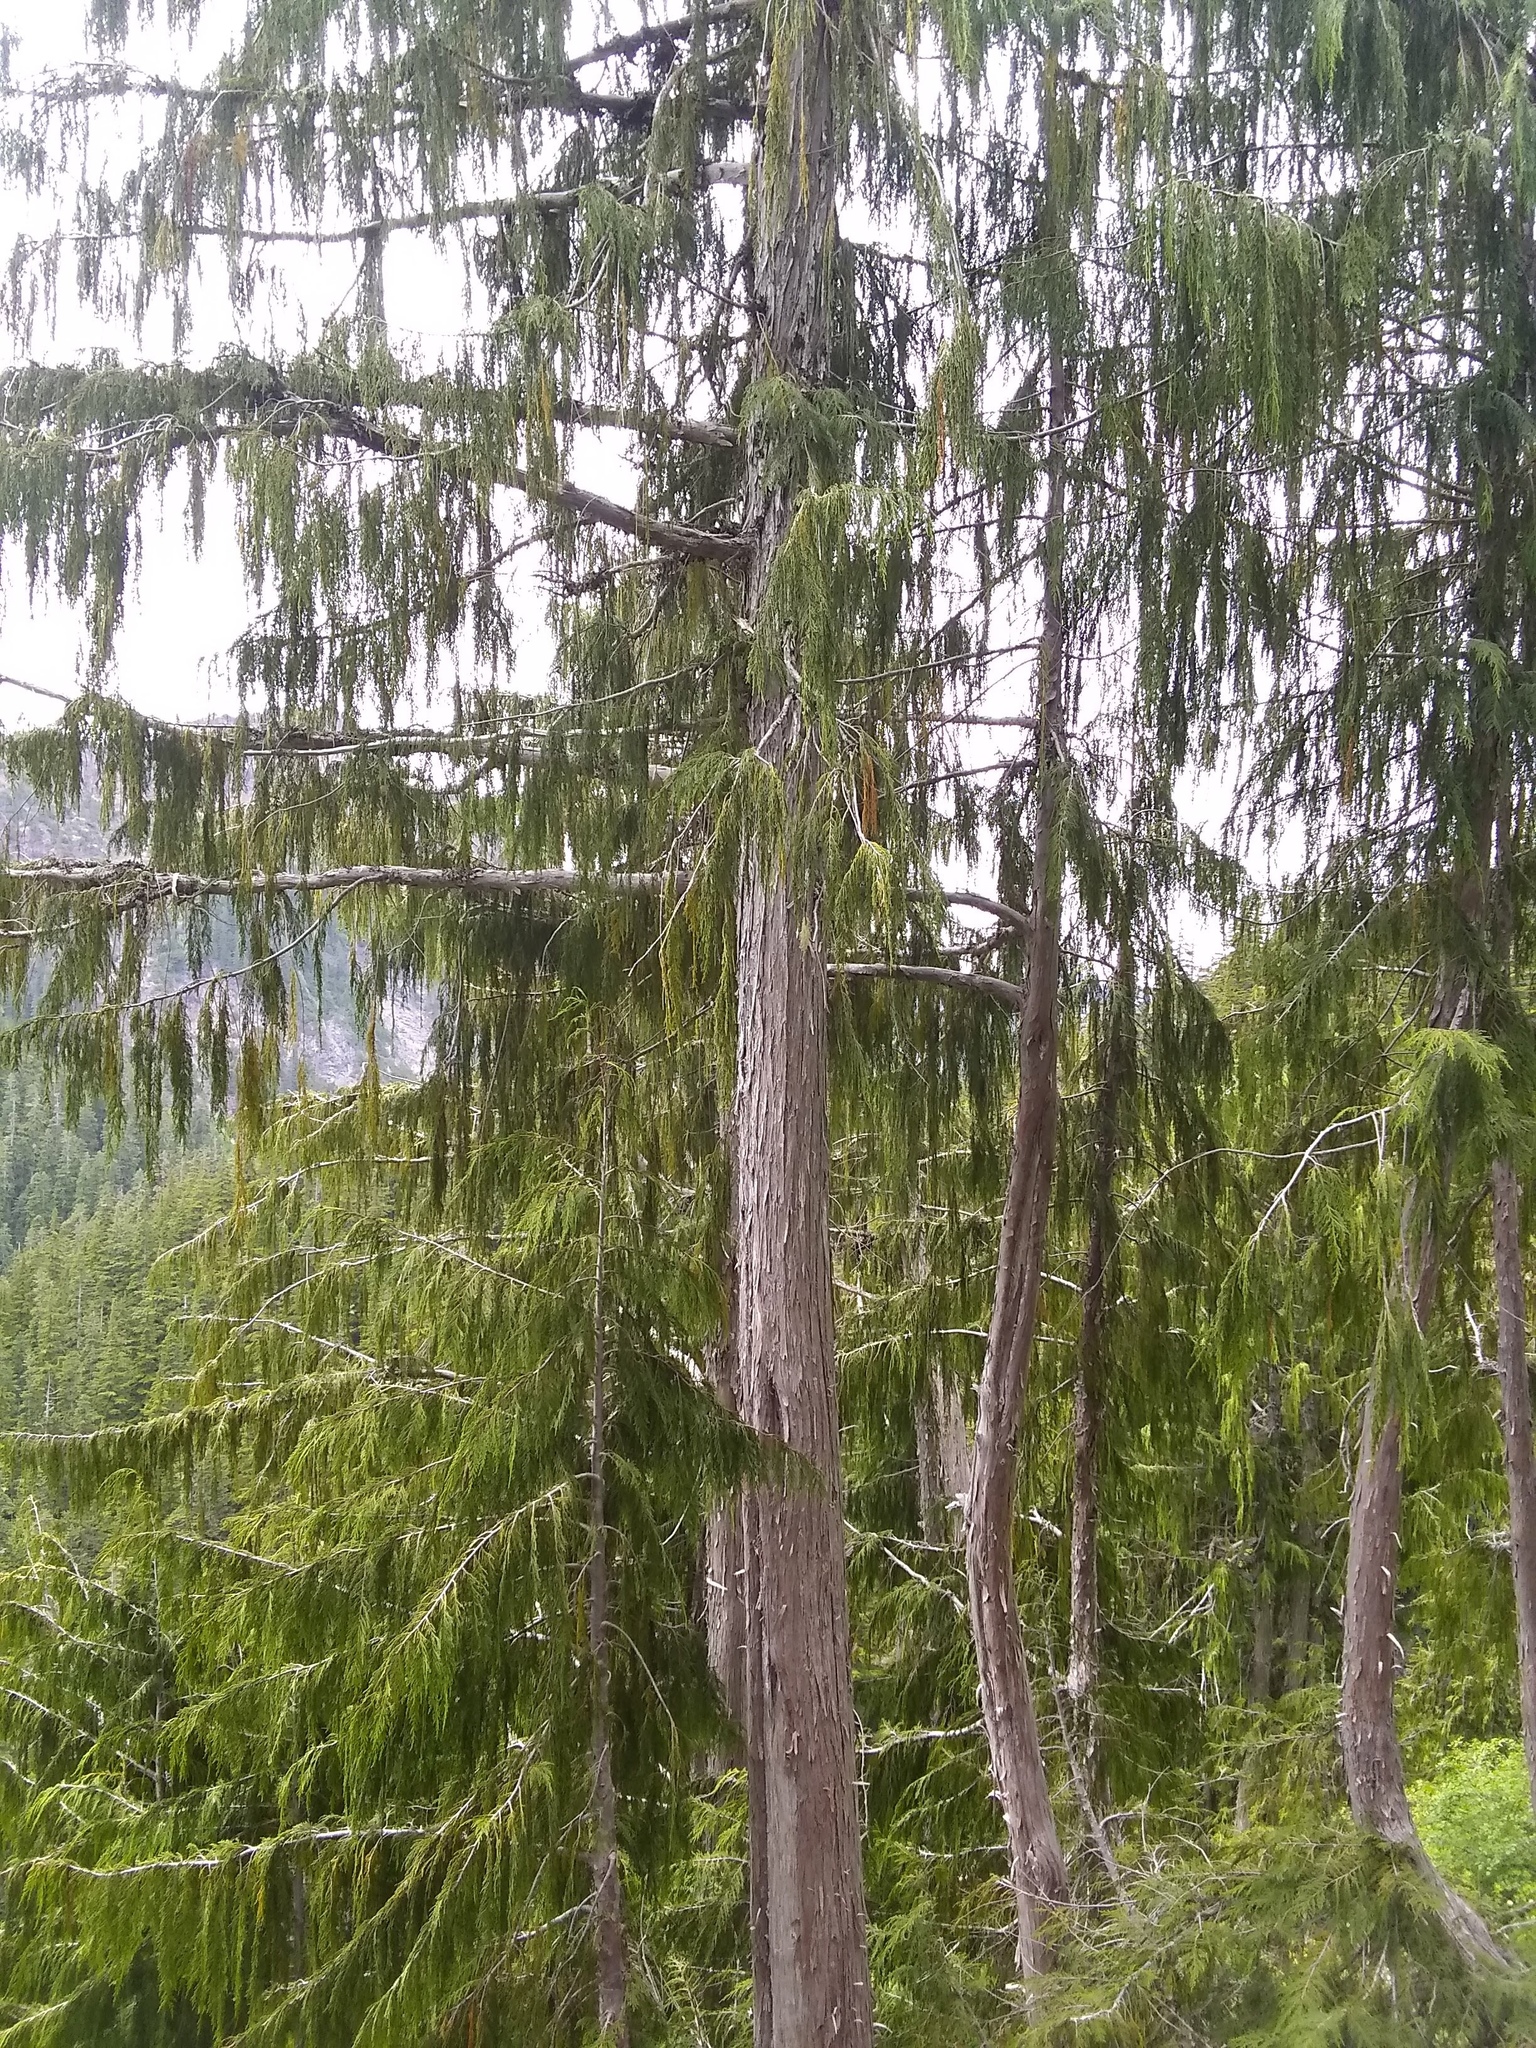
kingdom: Plantae
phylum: Tracheophyta
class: Pinopsida
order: Pinales
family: Cupressaceae
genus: Xanthocyparis
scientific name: Xanthocyparis nootkatensis
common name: Nootka cypress
